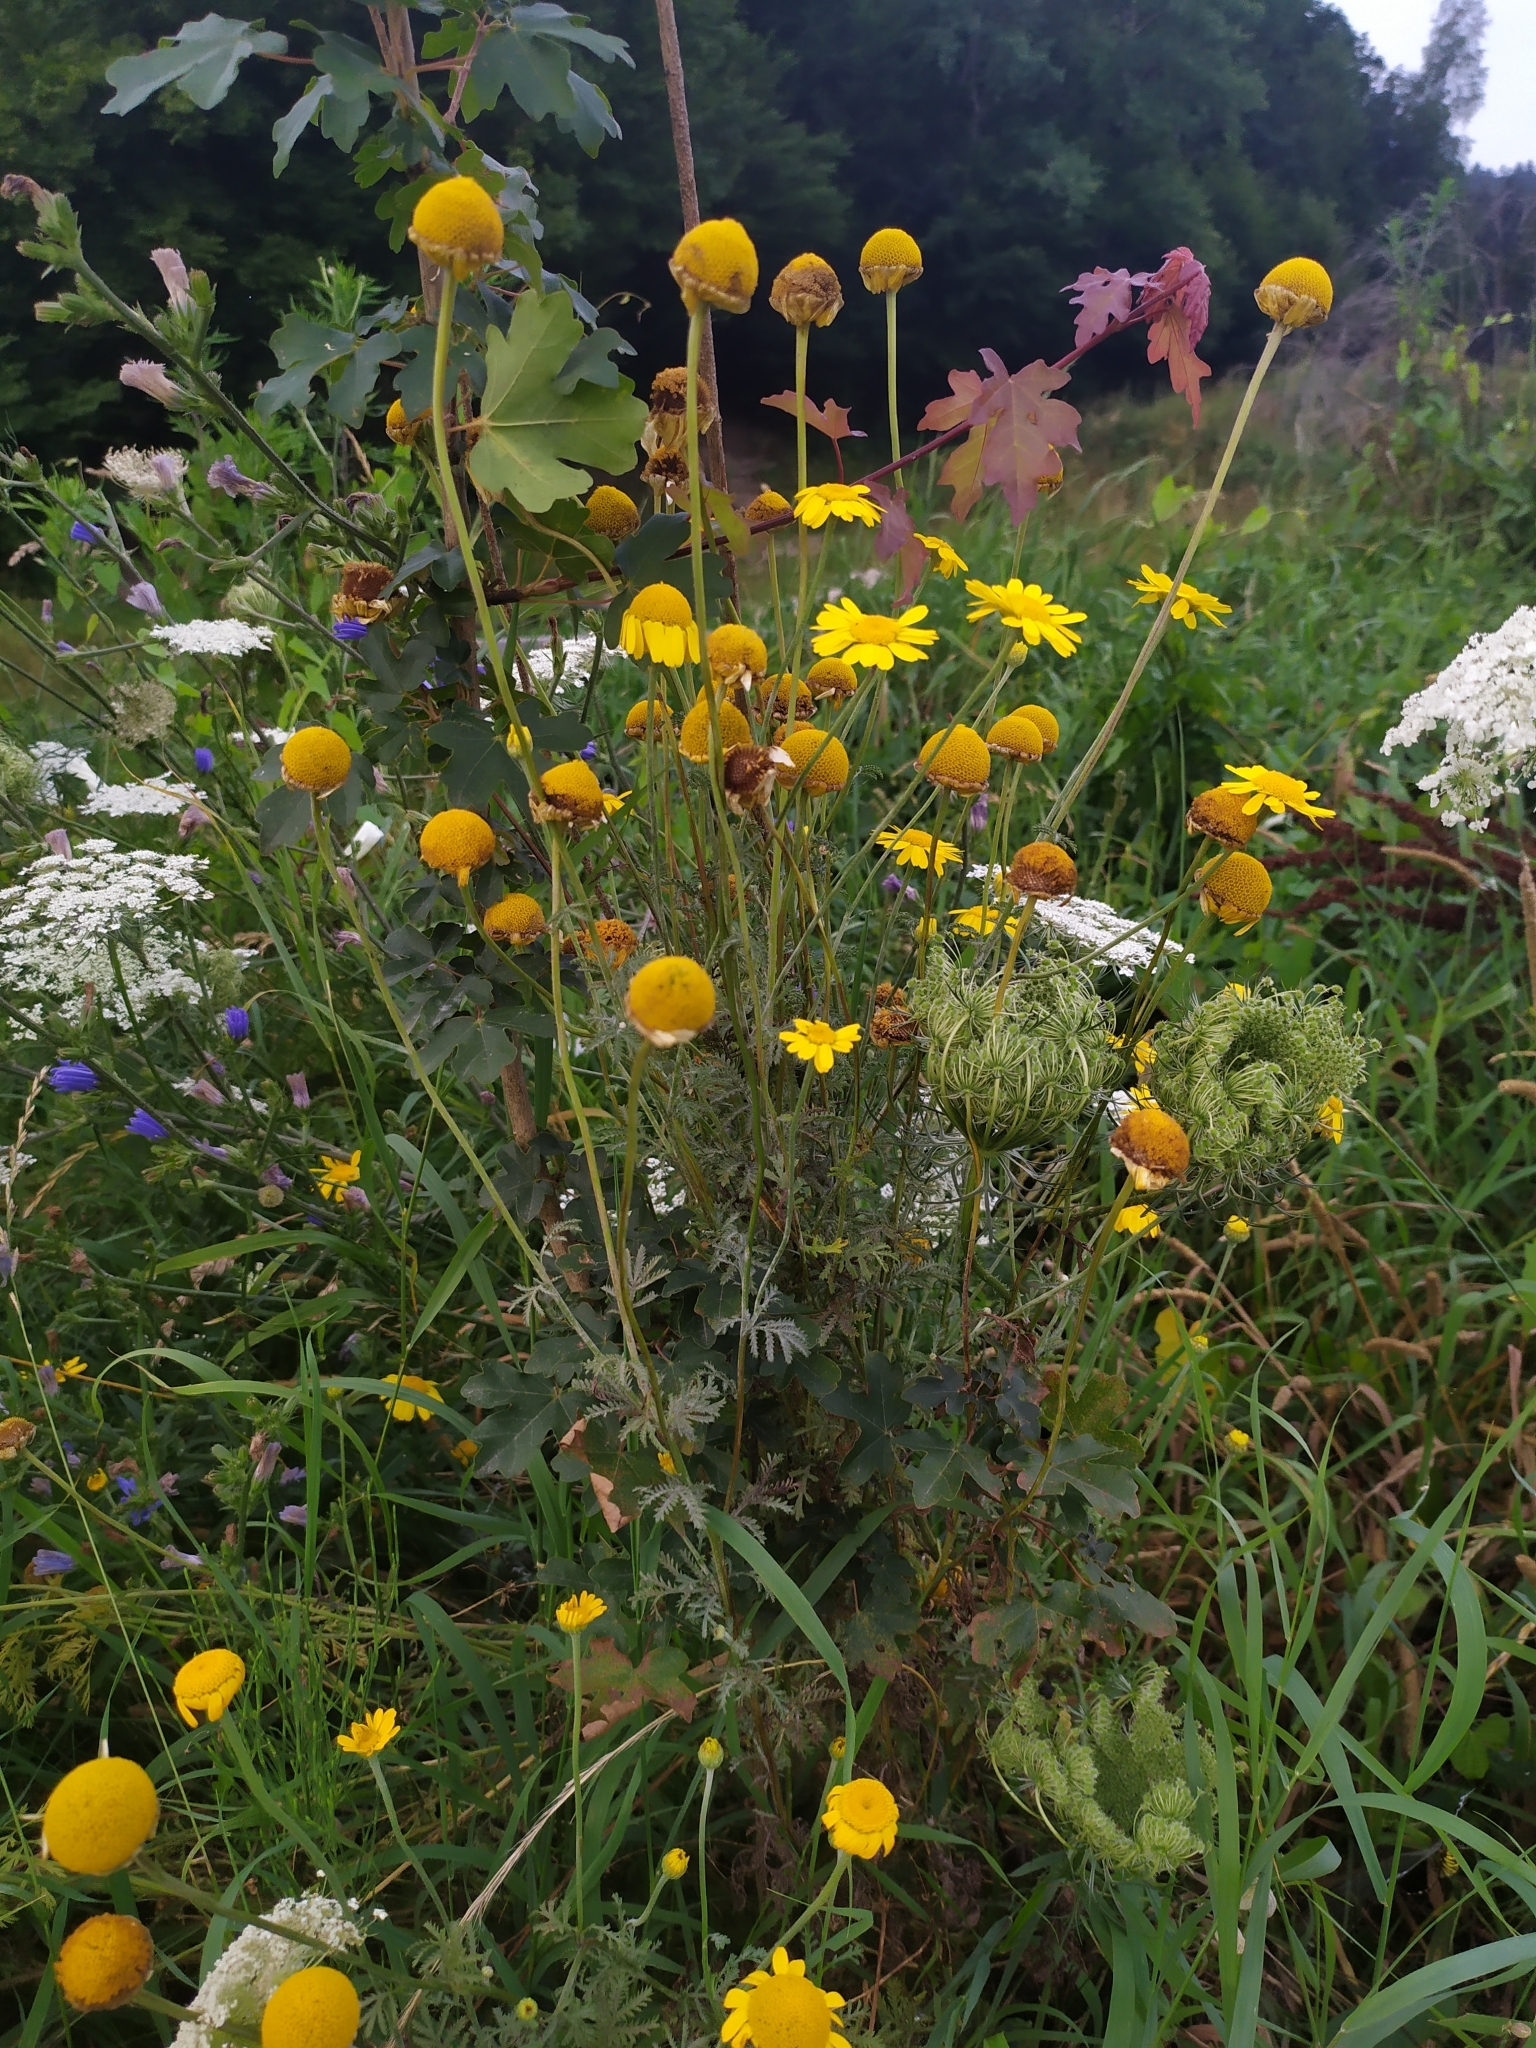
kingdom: Plantae
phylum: Tracheophyta
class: Magnoliopsida
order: Asterales
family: Asteraceae
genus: Cota
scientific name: Cota tinctoria
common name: Golden chamomile
